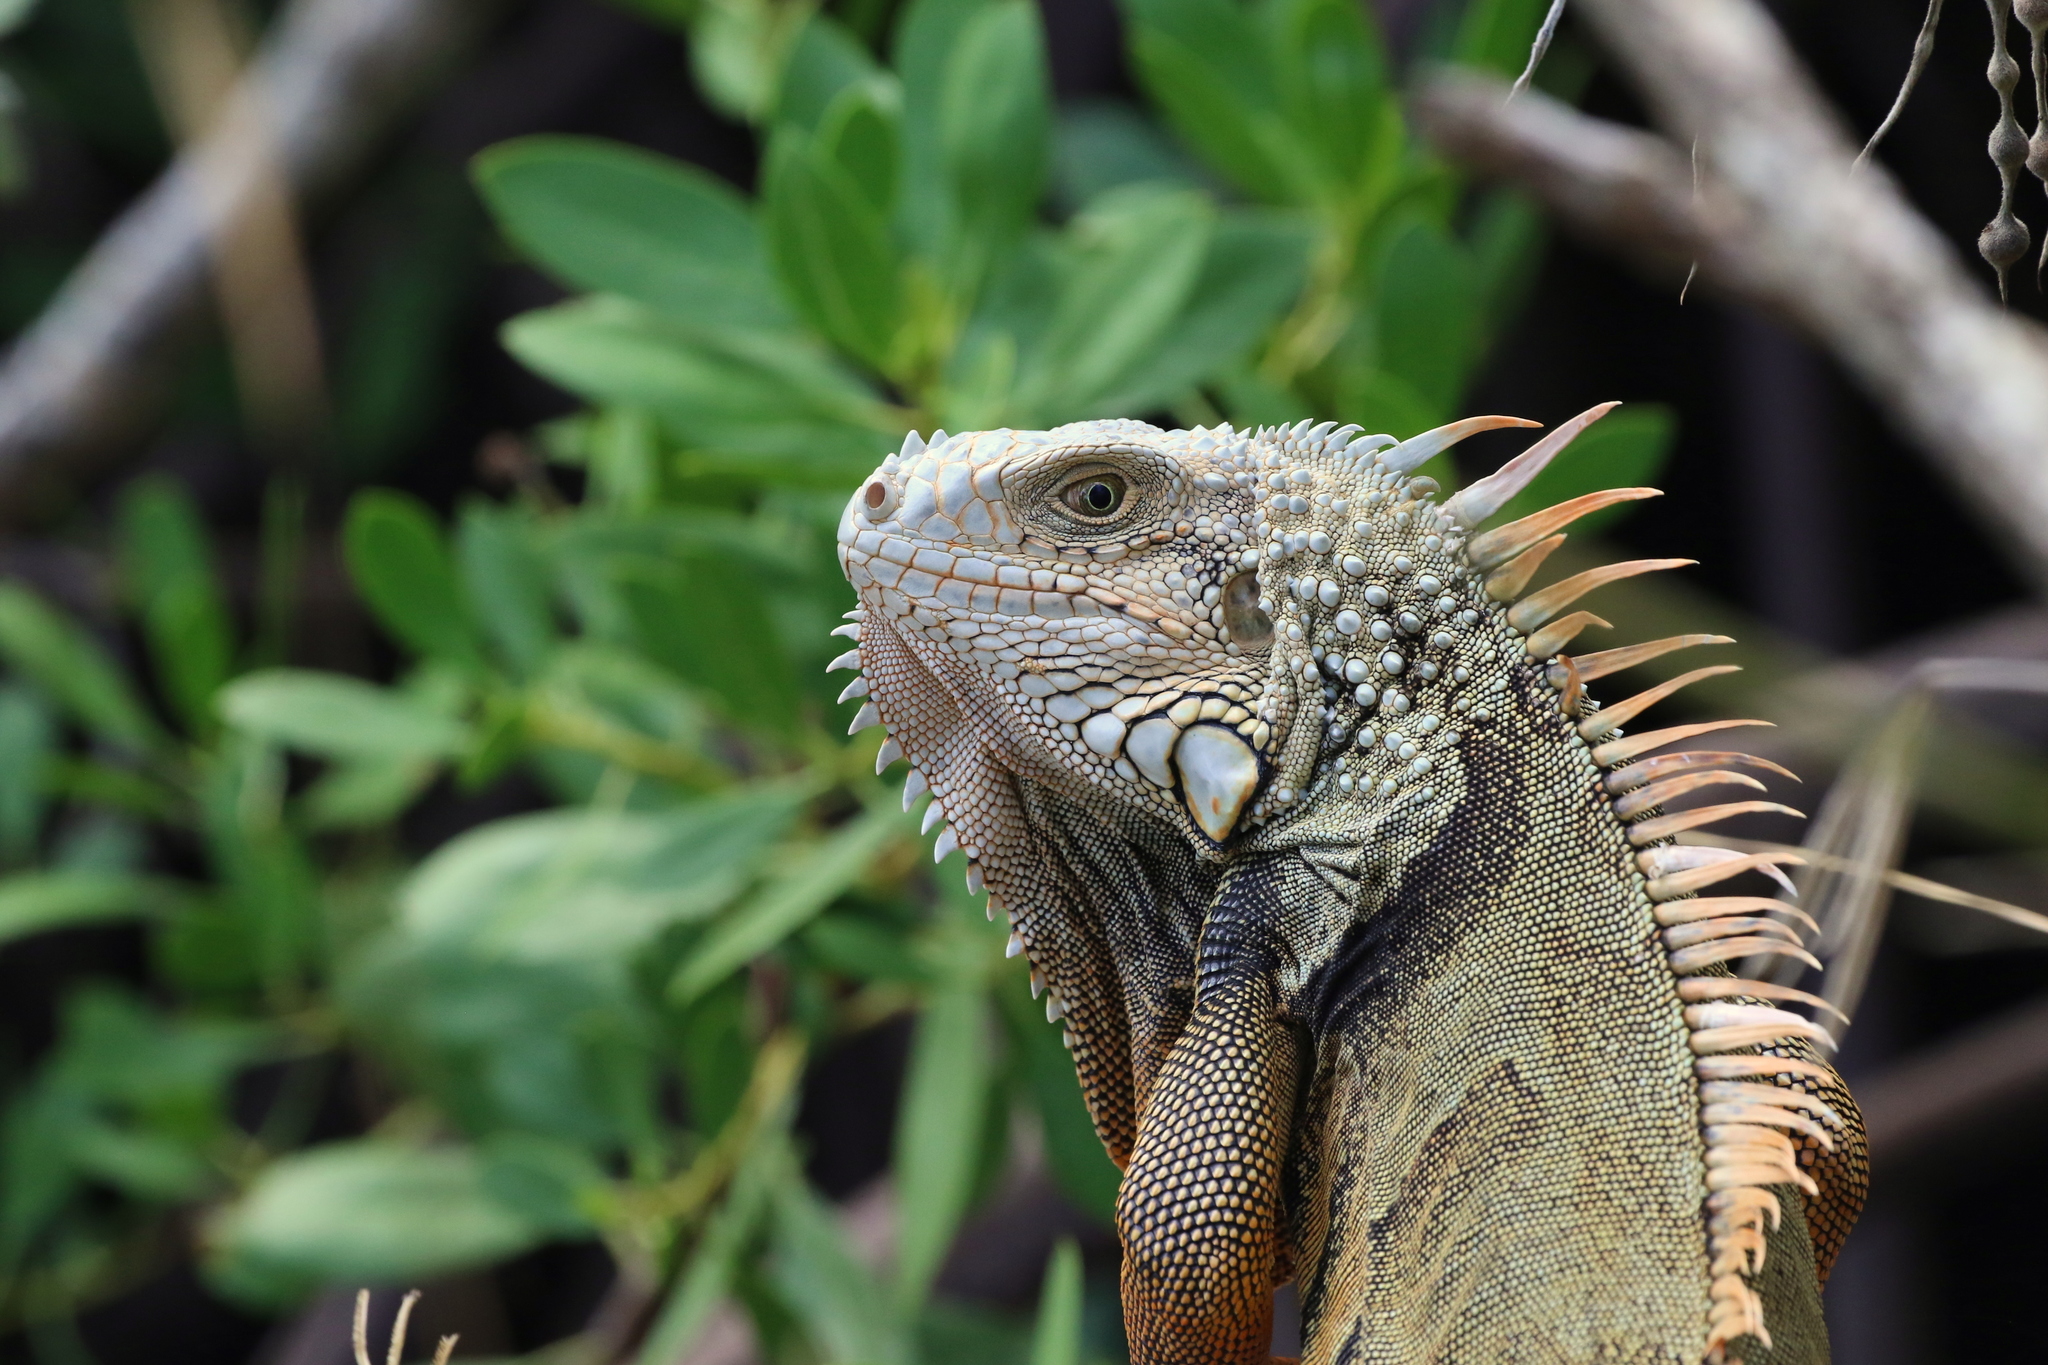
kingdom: Animalia
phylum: Chordata
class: Squamata
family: Iguanidae
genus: Iguana
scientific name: Iguana iguana
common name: Green iguana
